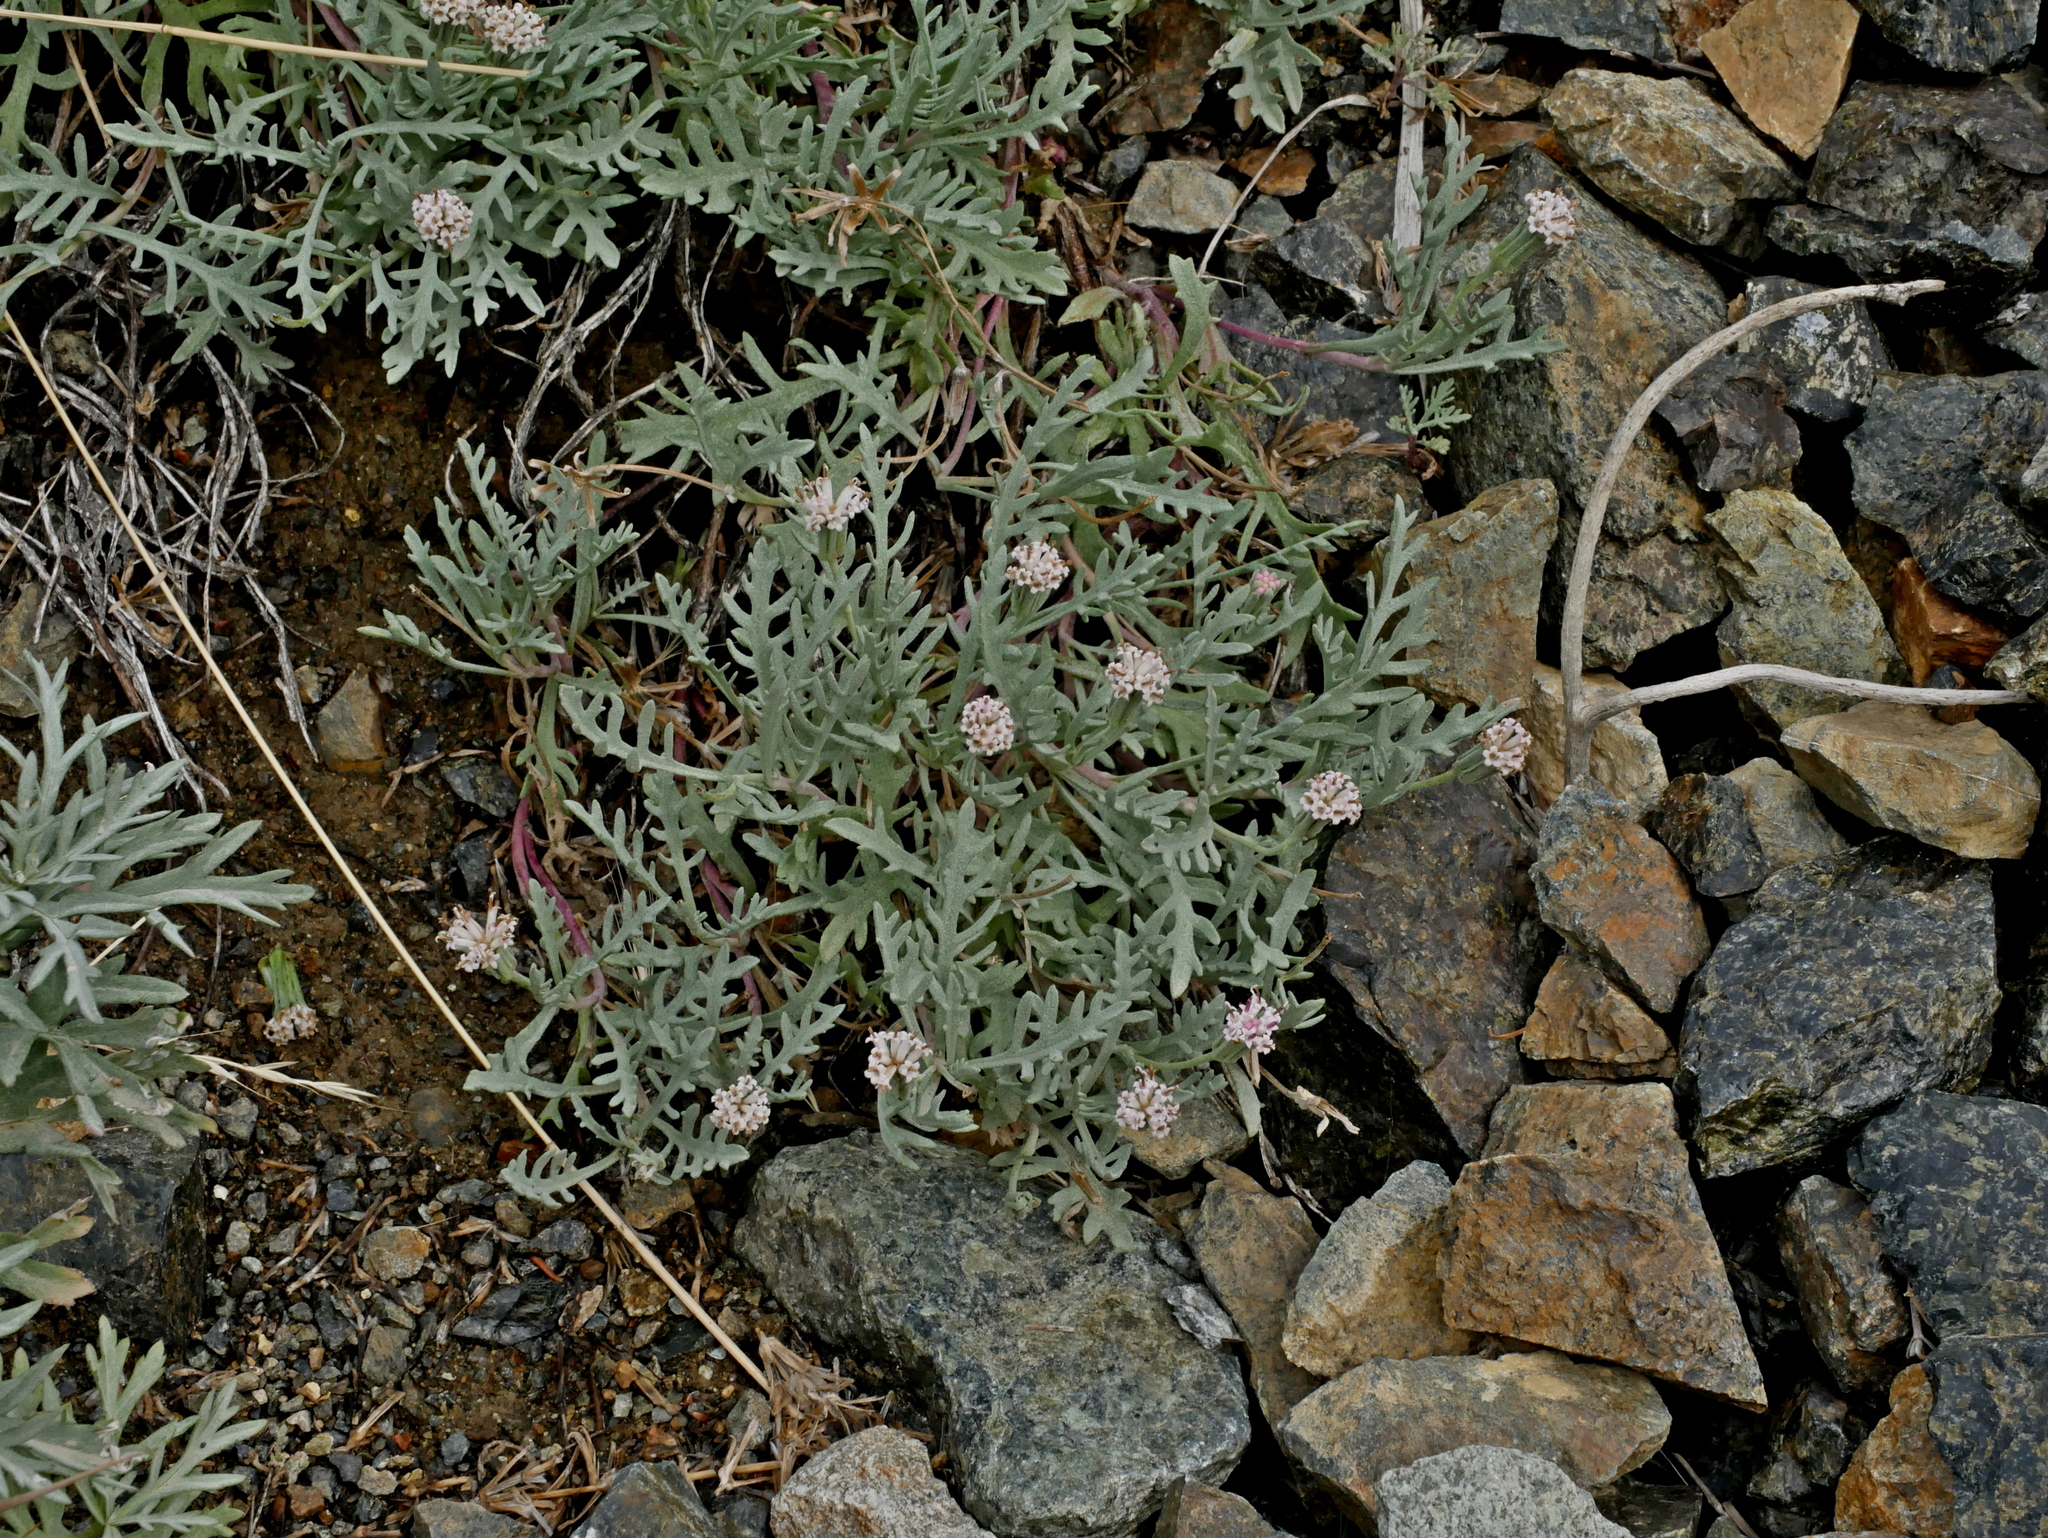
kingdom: Plantae
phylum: Tracheophyta
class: Magnoliopsida
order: Asterales
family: Asteraceae
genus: Chaenactis
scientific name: Chaenactis thompsonii
